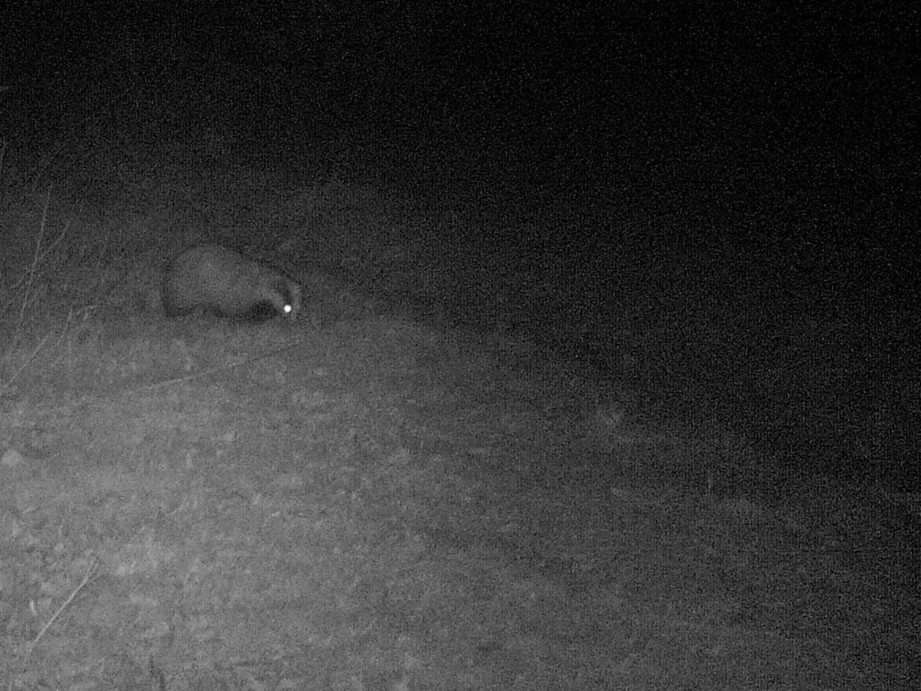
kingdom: Animalia
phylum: Chordata
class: Mammalia
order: Carnivora
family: Mustelidae
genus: Meles
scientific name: Meles meles
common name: Eurasian badger
